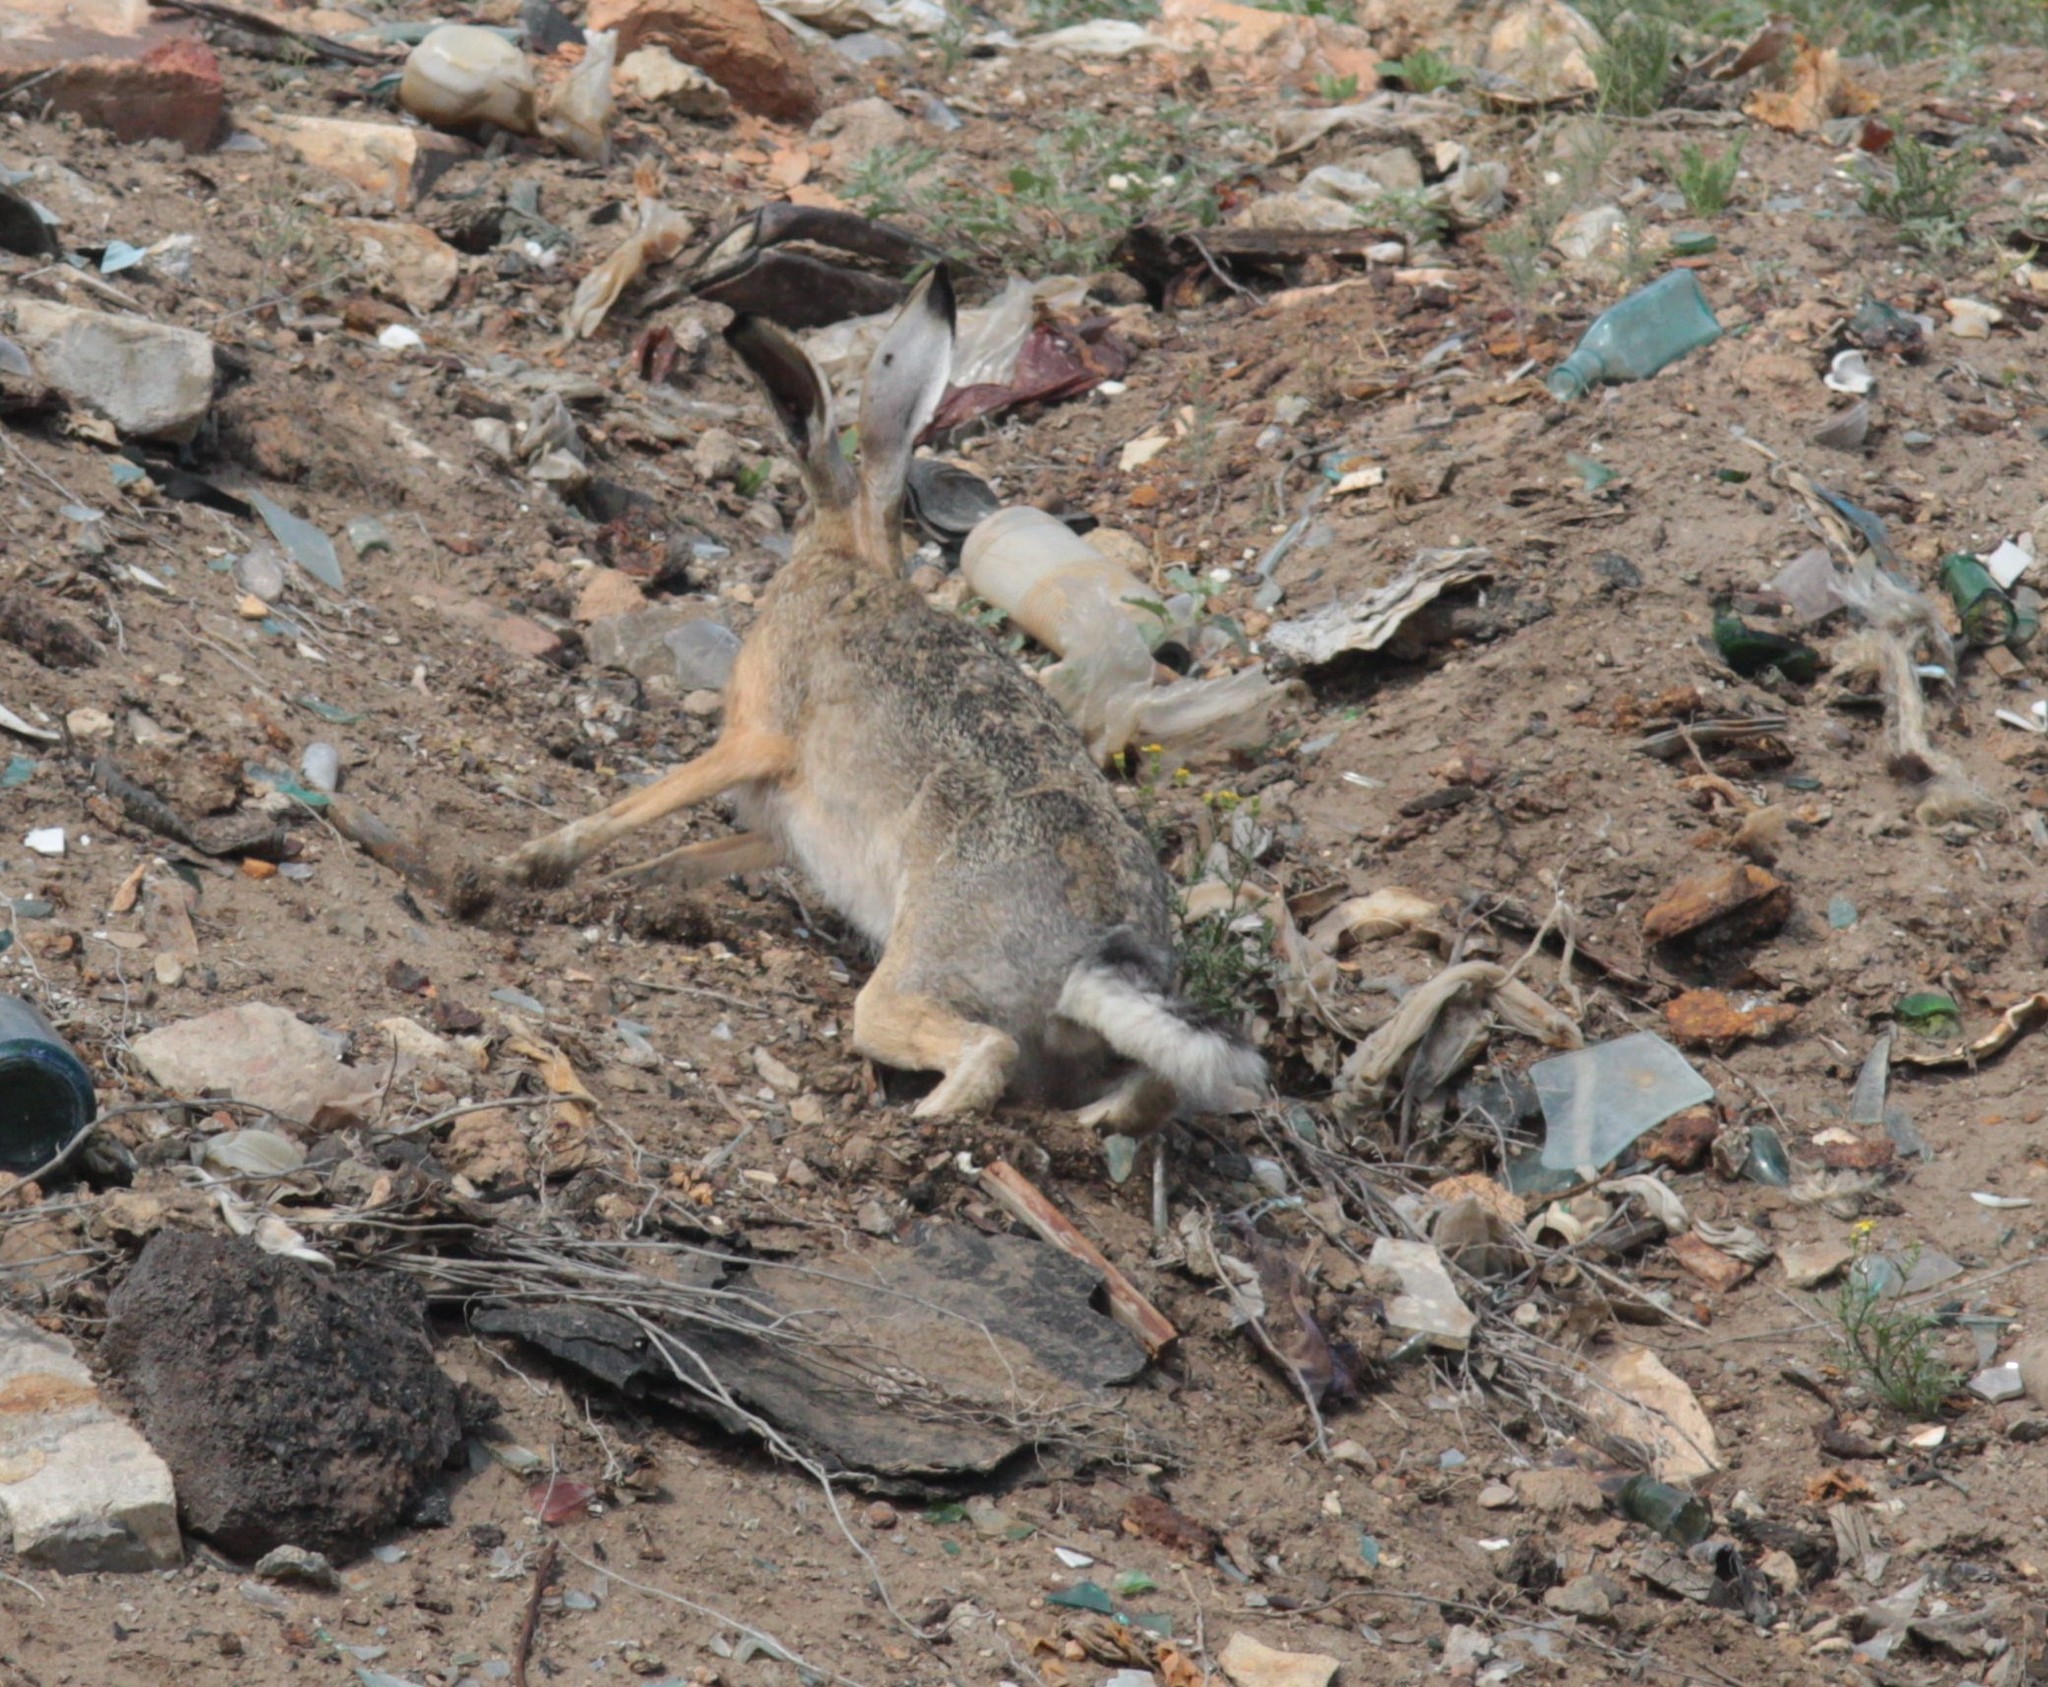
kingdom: Animalia
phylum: Chordata
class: Mammalia
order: Lagomorpha
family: Leporidae
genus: Lepus
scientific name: Lepus europaeus
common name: European hare
